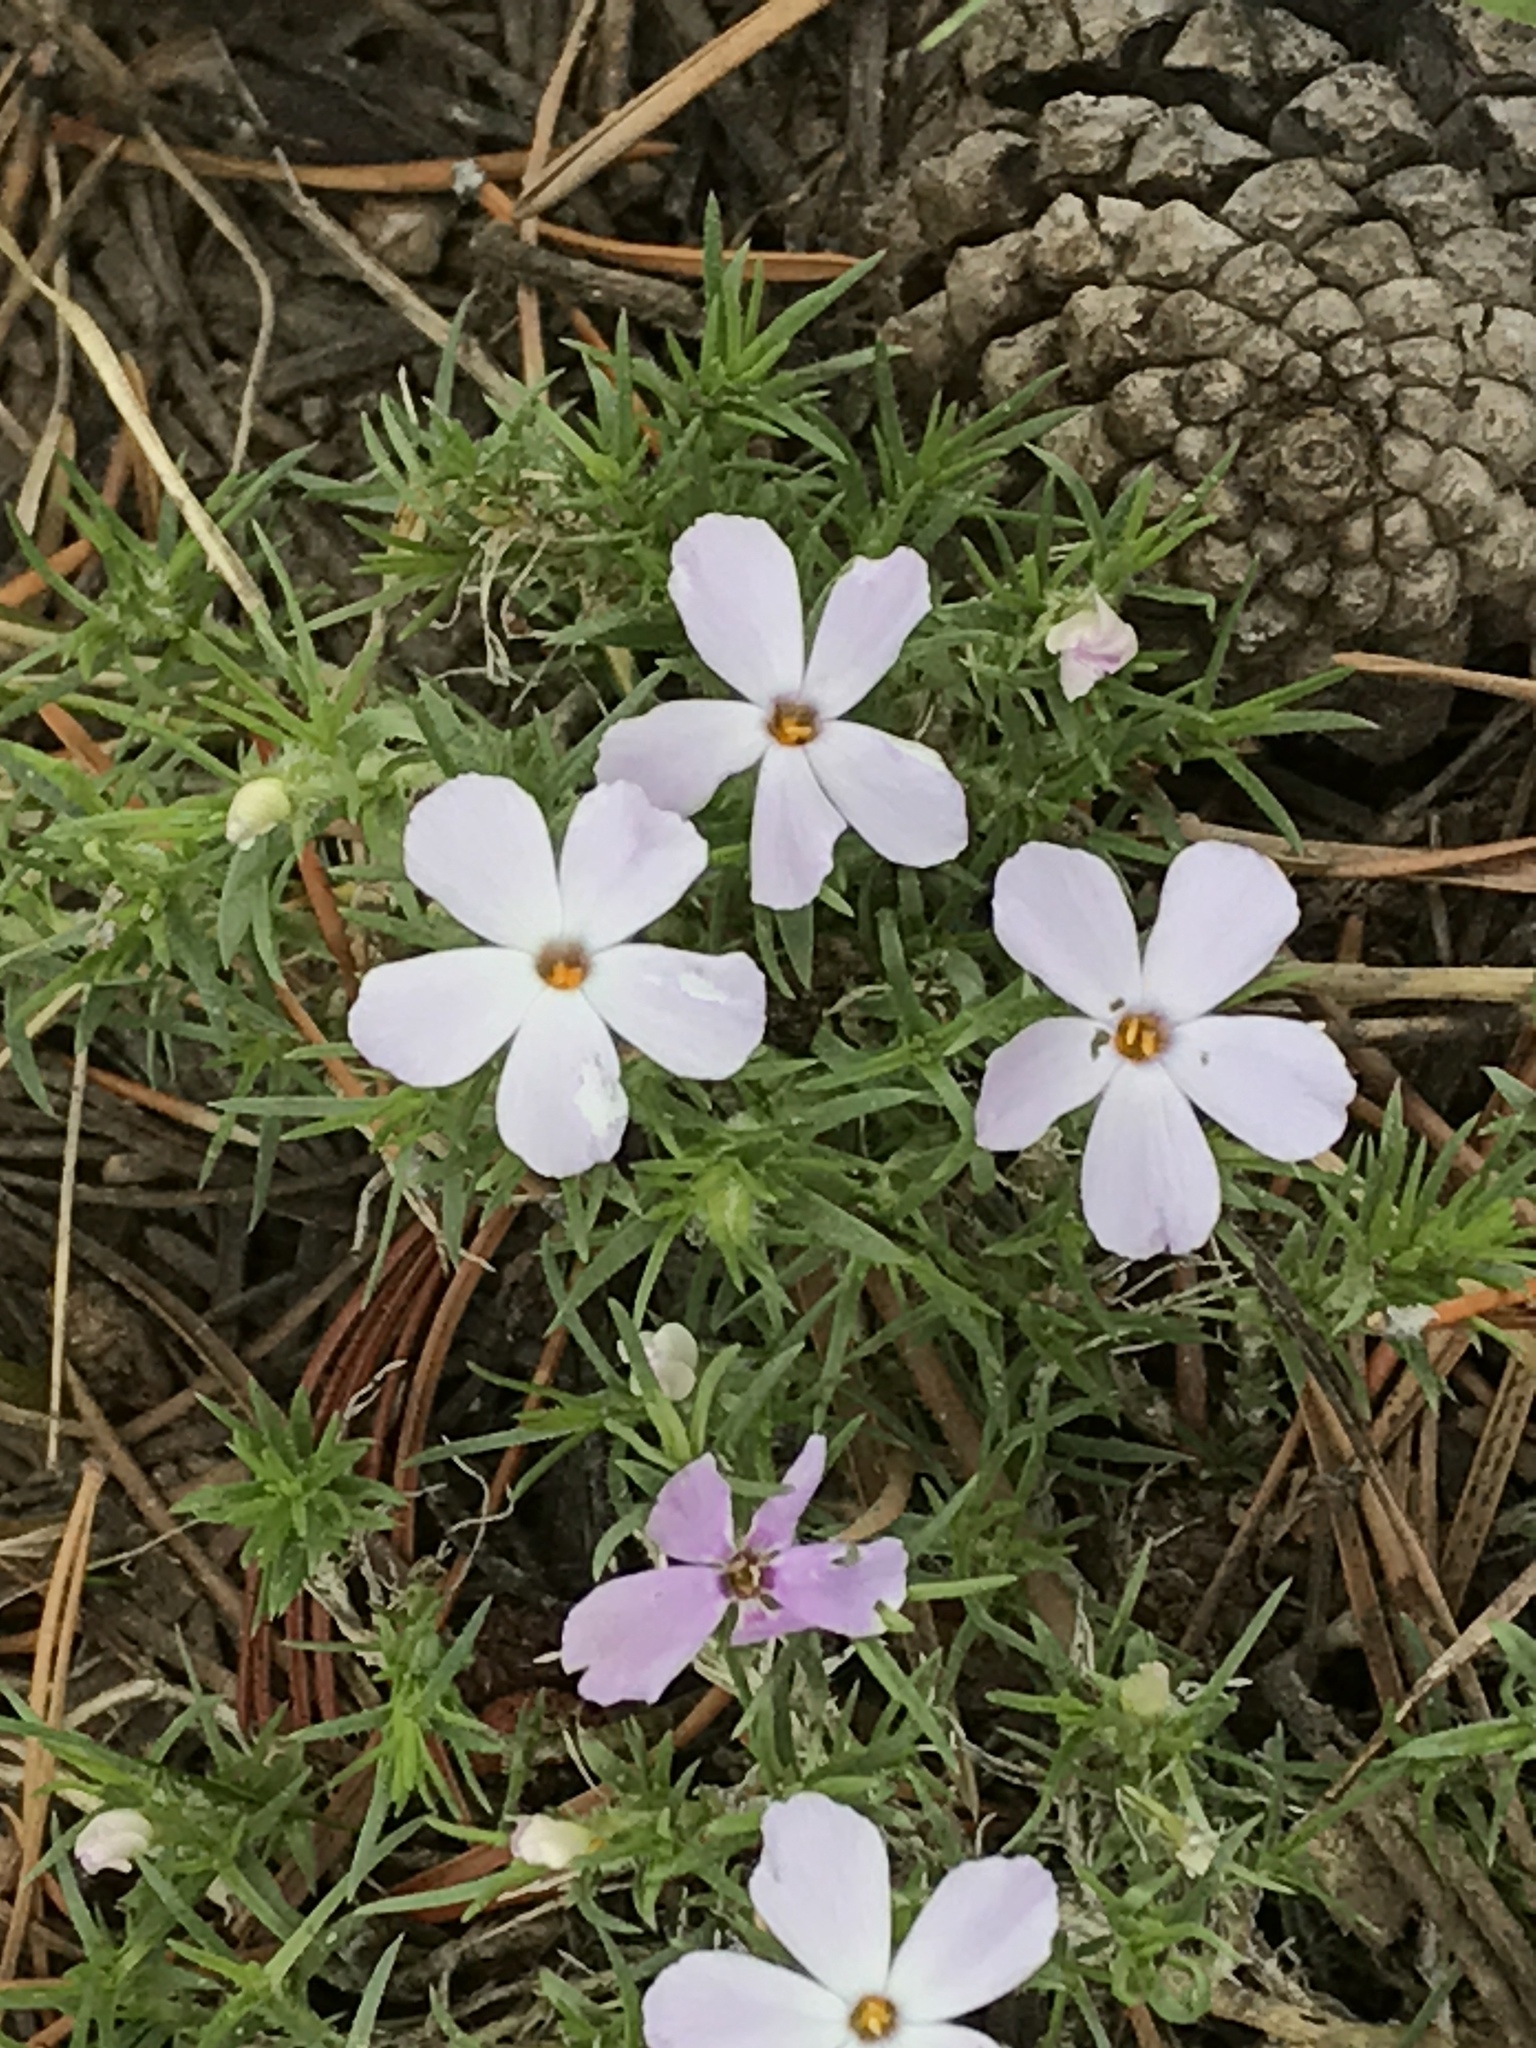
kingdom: Plantae
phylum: Tracheophyta
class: Magnoliopsida
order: Ericales
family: Polemoniaceae
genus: Phlox
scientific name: Phlox diffusa
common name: Mat phlox
